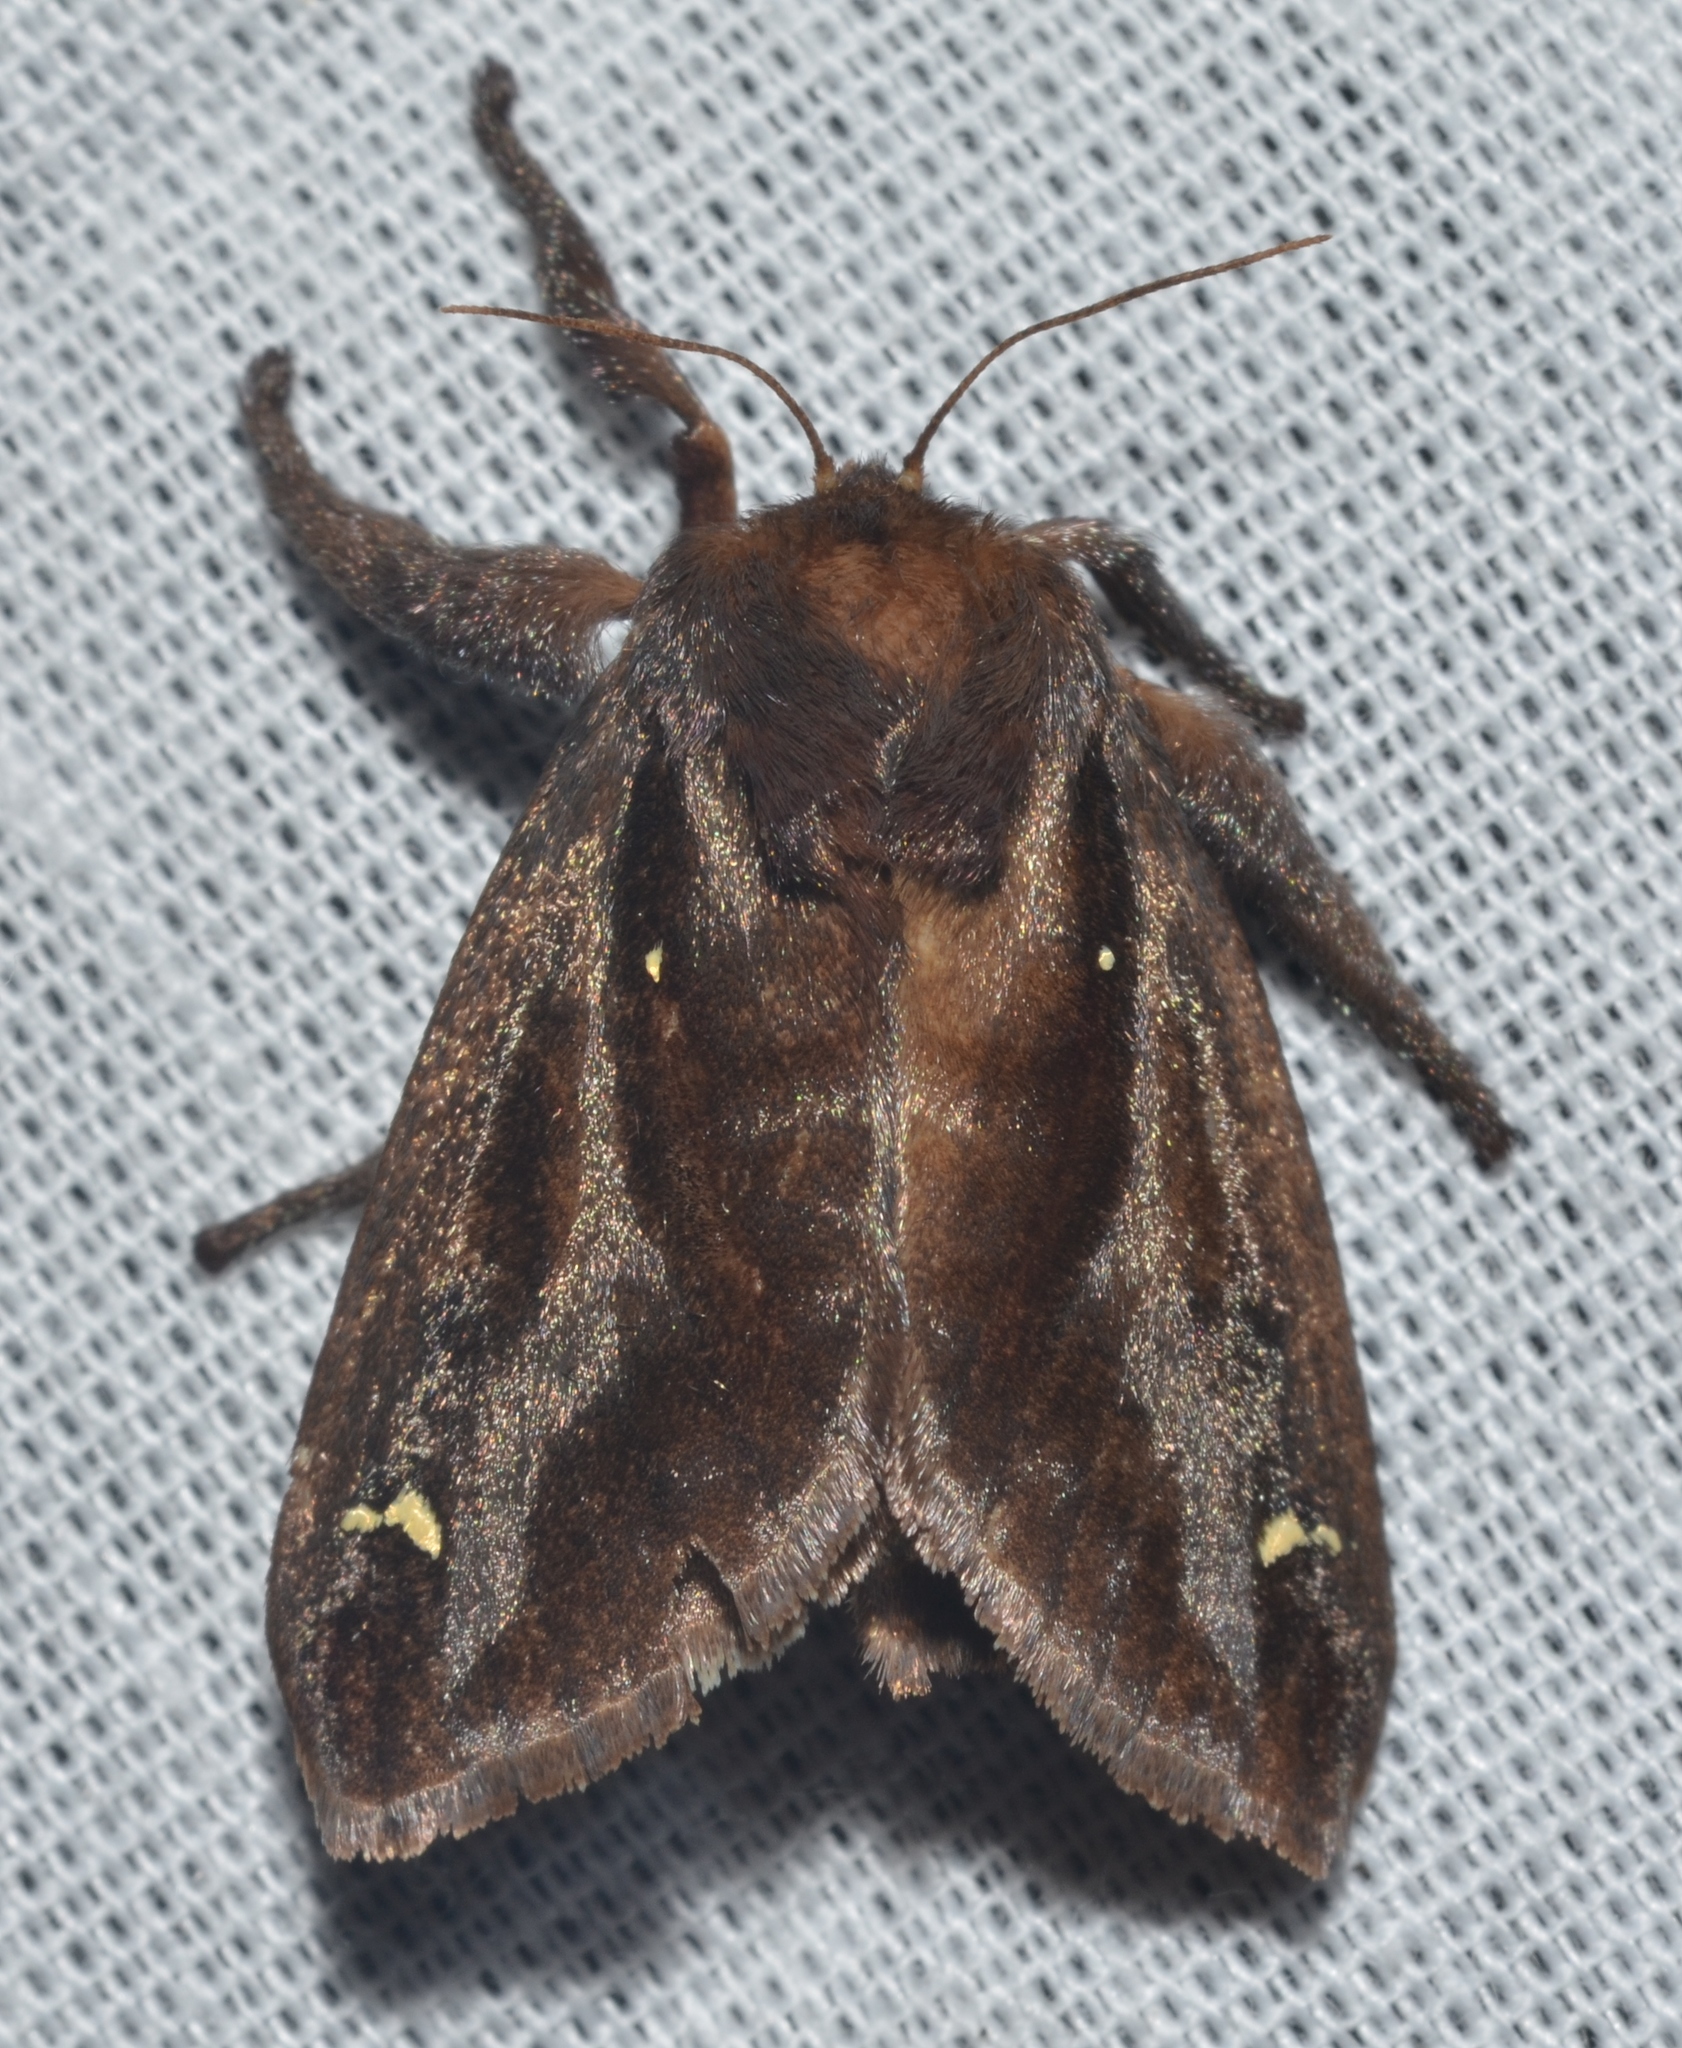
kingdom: Animalia
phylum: Arthropoda
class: Insecta
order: Lepidoptera
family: Limacodidae
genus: Acharia
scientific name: Acharia stimulea
